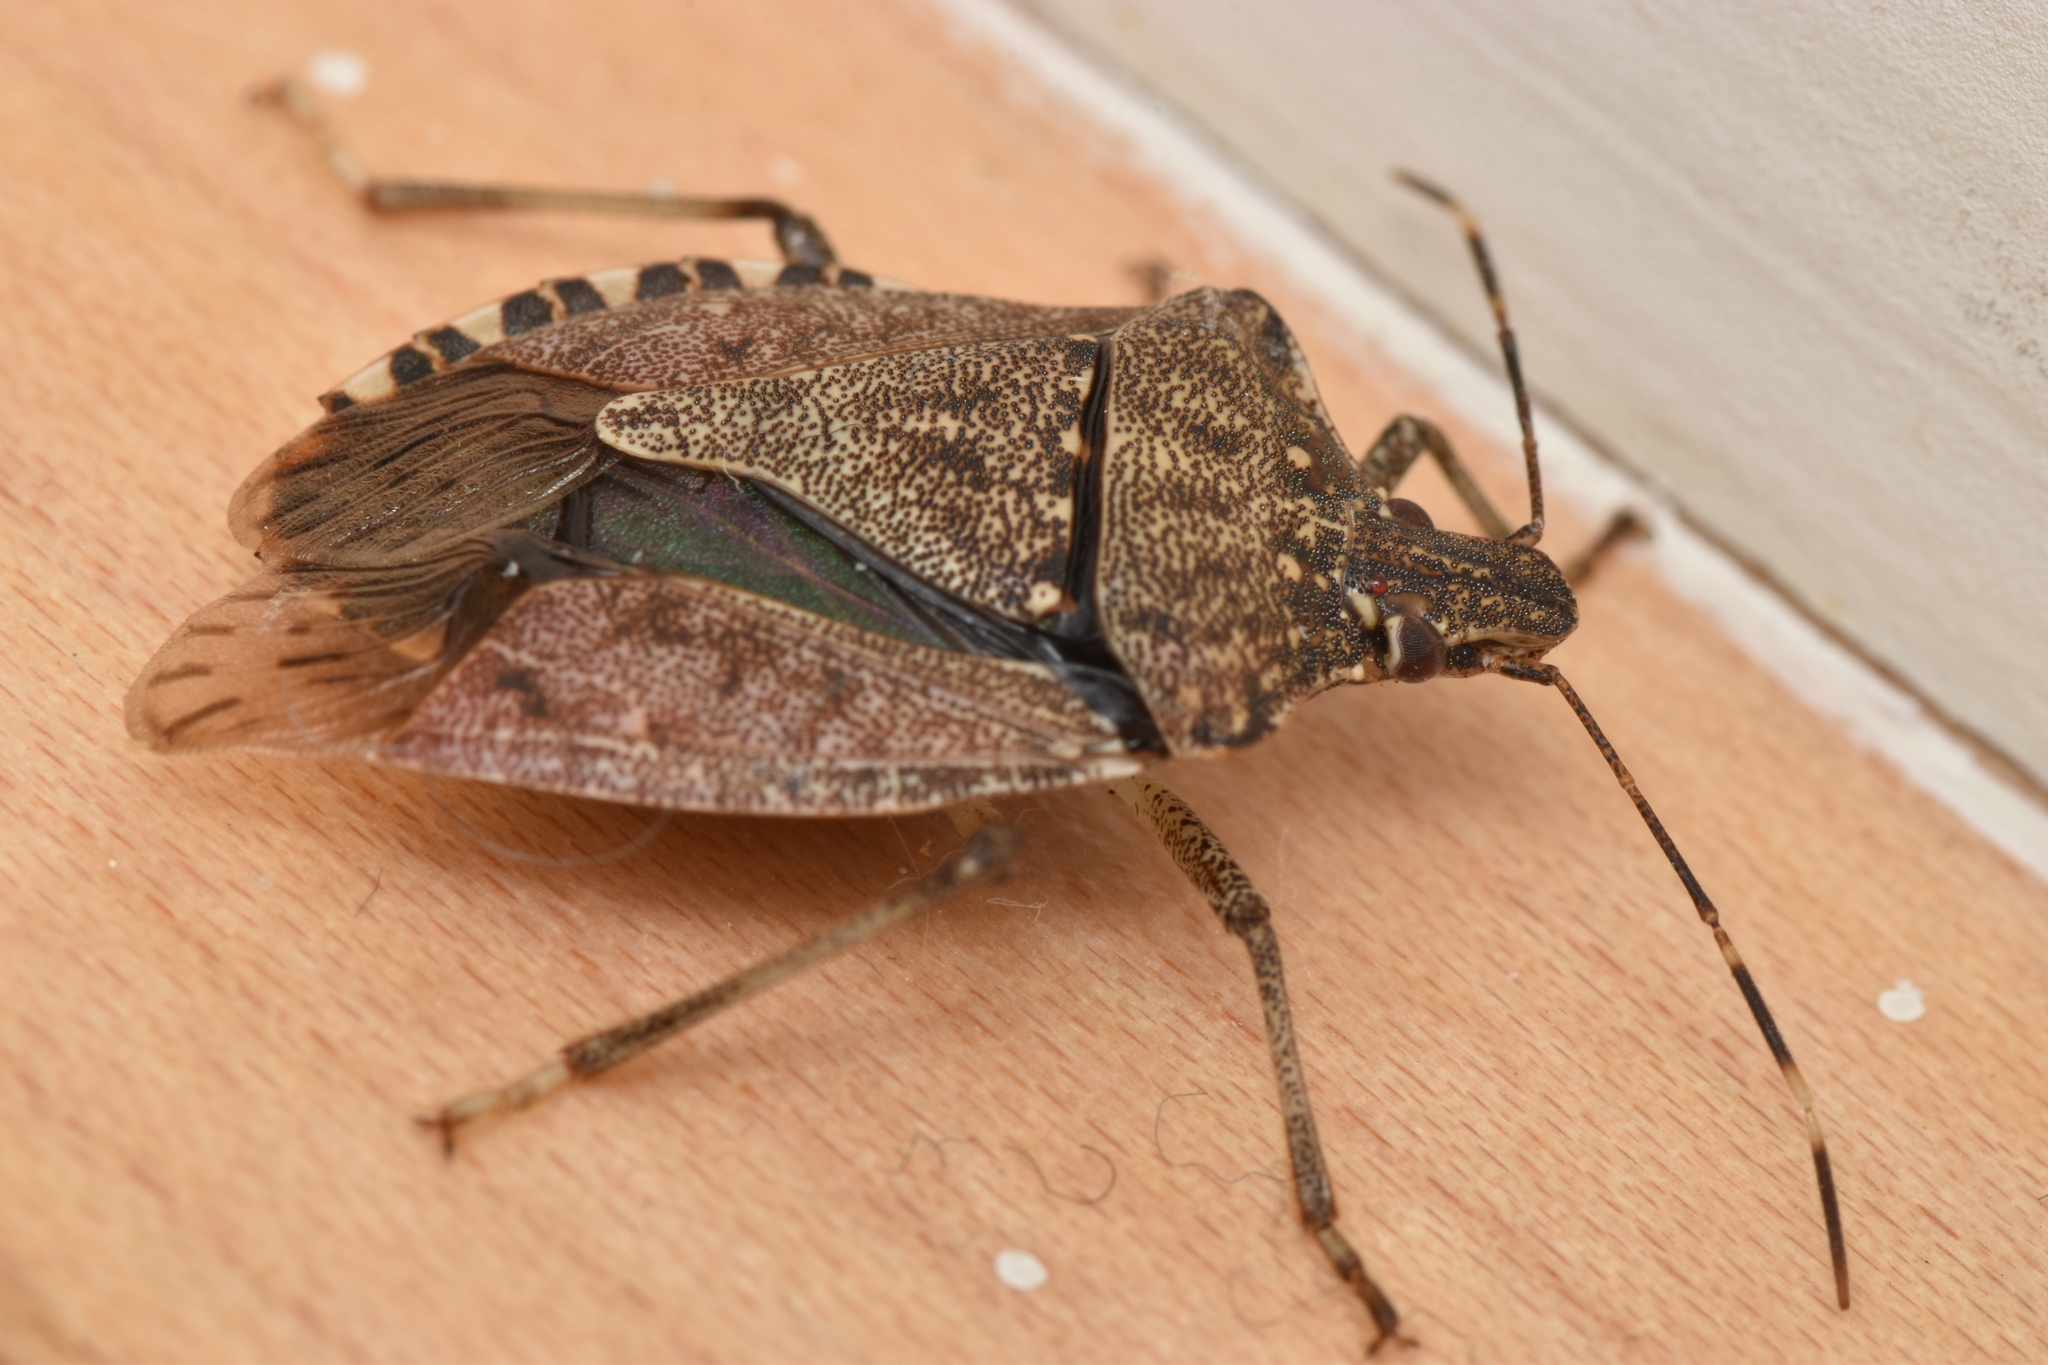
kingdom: Animalia
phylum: Arthropoda
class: Insecta
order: Hemiptera
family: Pentatomidae
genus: Halyomorpha
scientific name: Halyomorpha halys
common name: Brown marmorated stink bug
